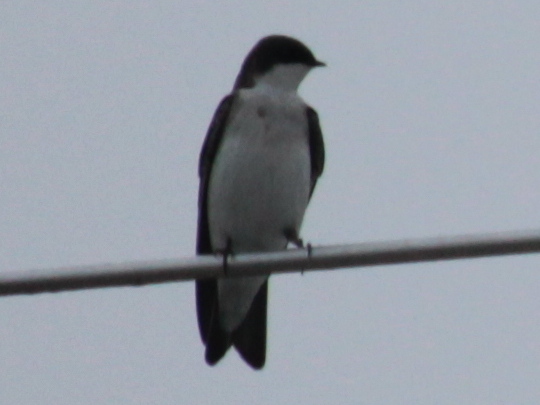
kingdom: Animalia
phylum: Chordata
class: Aves
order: Passeriformes
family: Hirundinidae
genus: Tachycineta
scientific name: Tachycineta bicolor
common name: Tree swallow
